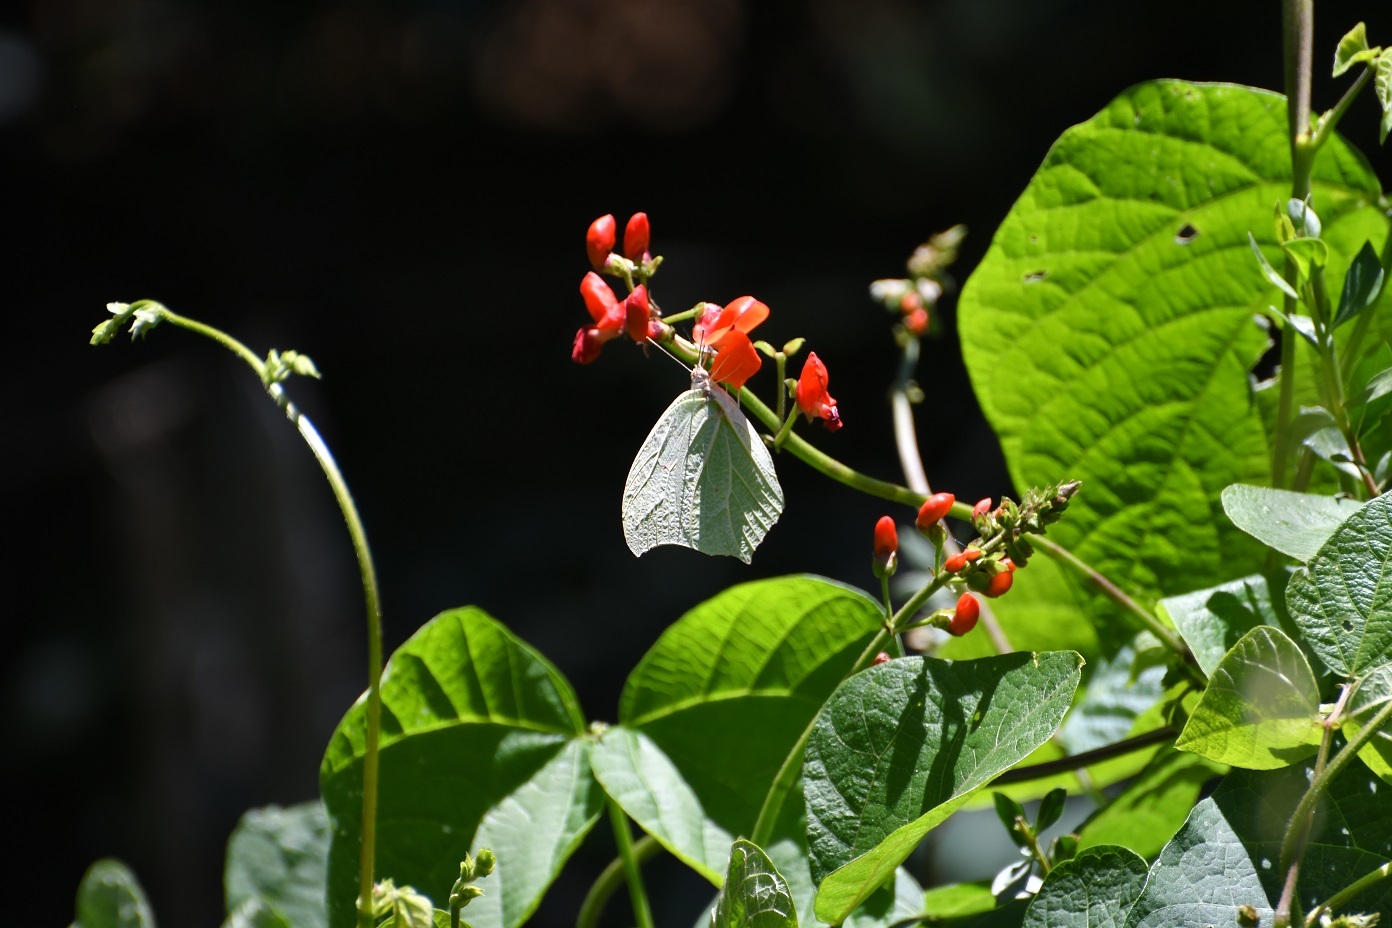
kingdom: Animalia
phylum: Arthropoda
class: Insecta
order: Lepidoptera
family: Pieridae
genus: Anteos
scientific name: Anteos clorinde
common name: White angled sulphur
